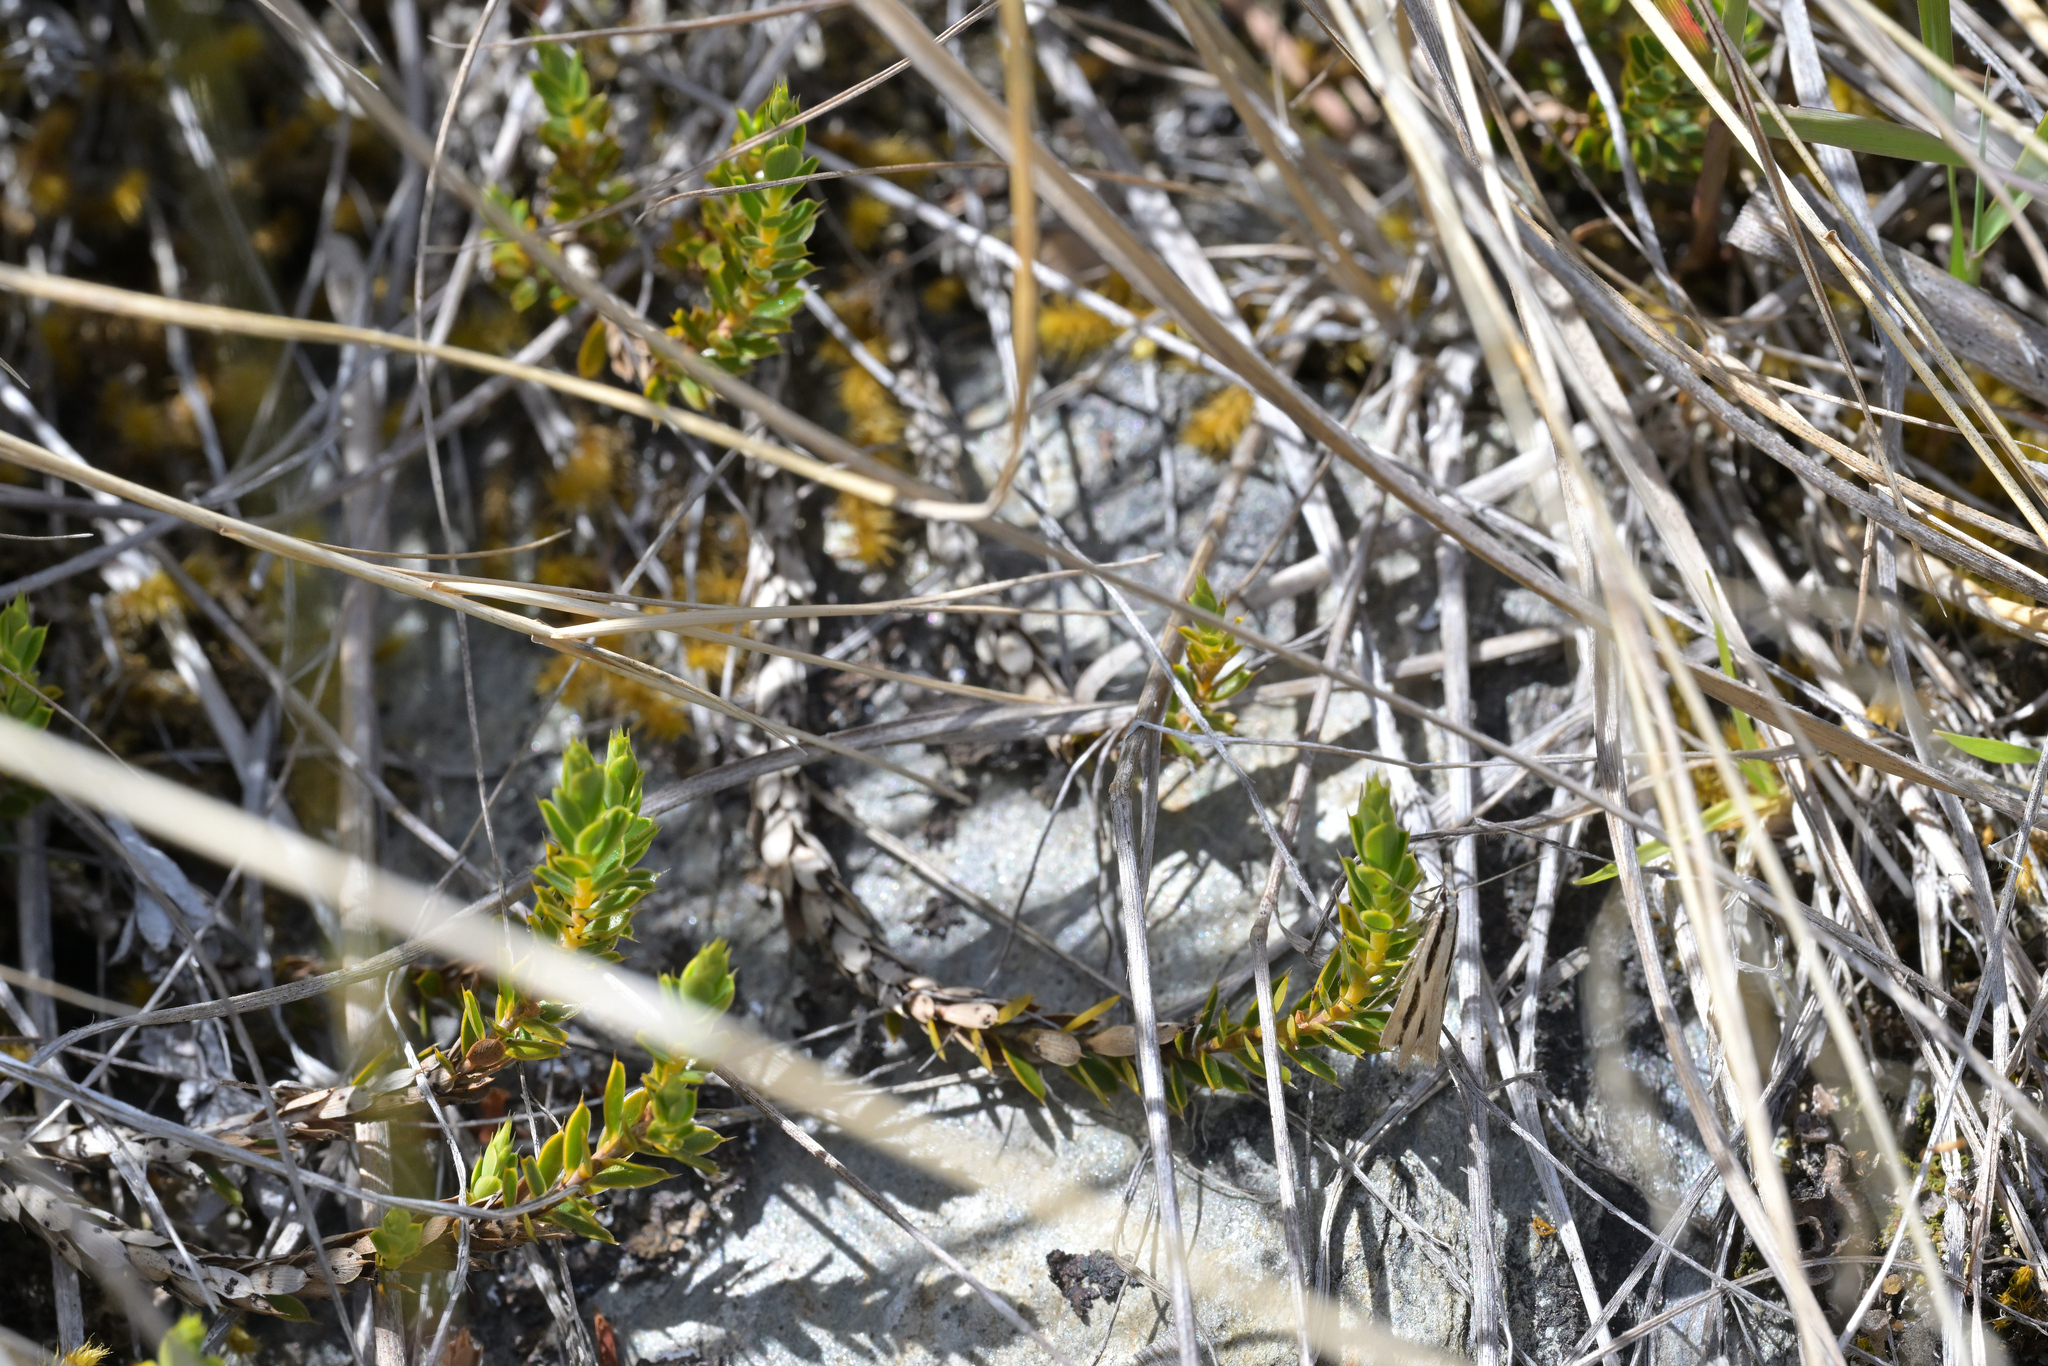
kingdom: Plantae
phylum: Tracheophyta
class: Magnoliopsida
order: Ericales
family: Ericaceae
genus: Styphelia
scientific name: Styphelia nesophila
